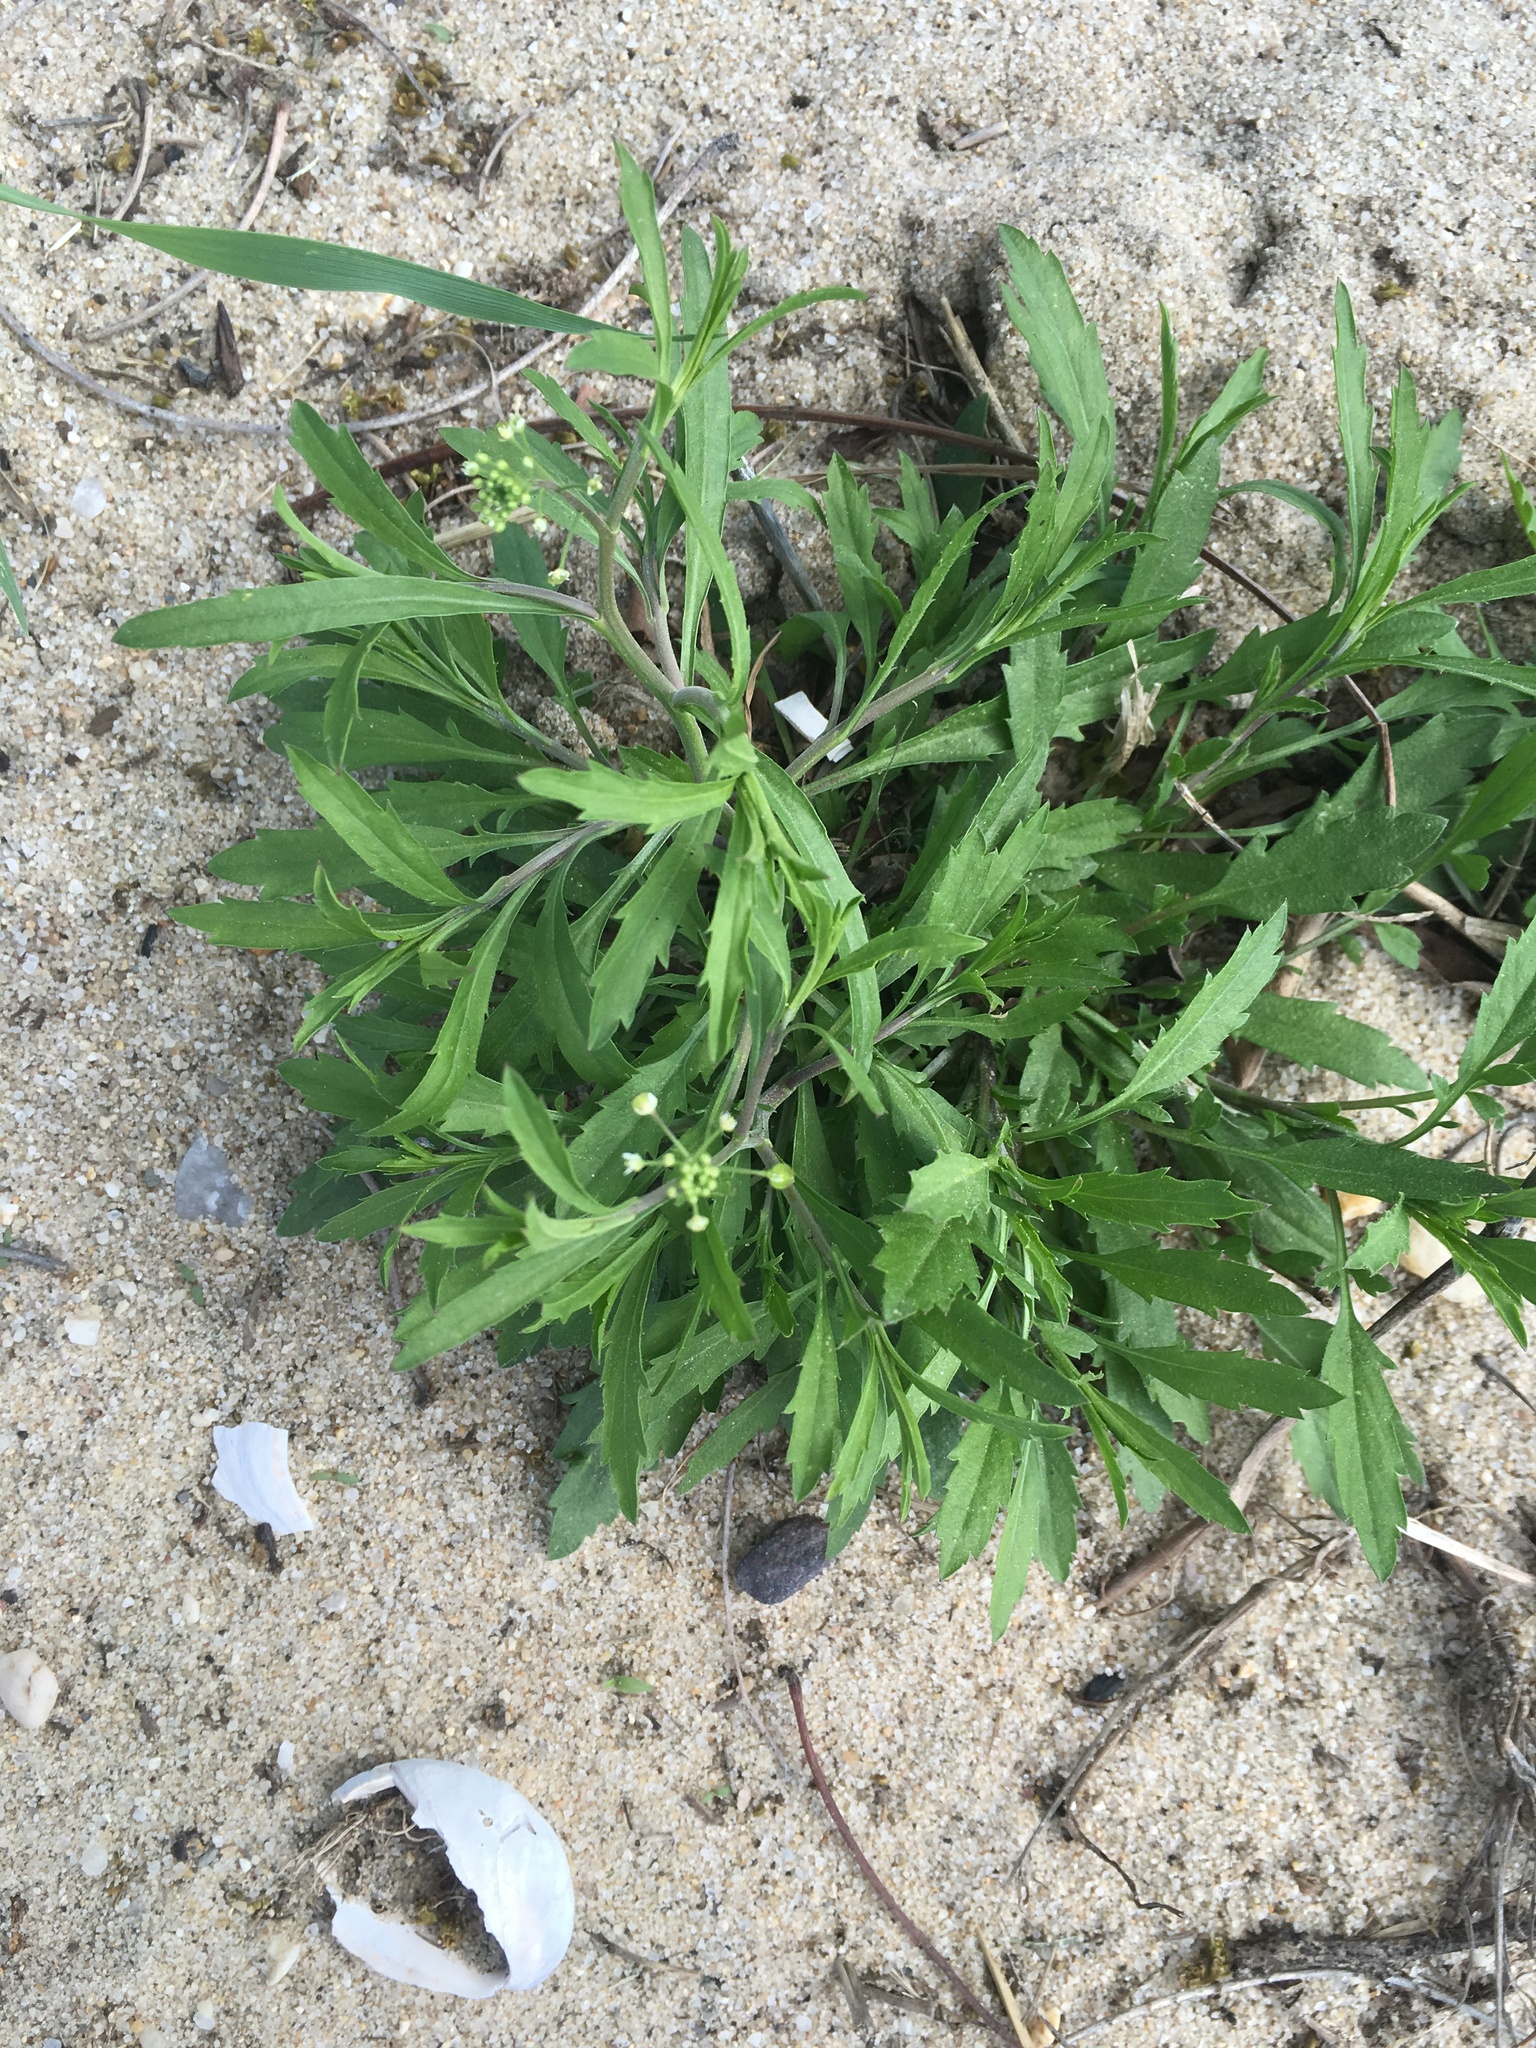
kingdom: Plantae
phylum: Tracheophyta
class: Magnoliopsida
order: Brassicales
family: Brassicaceae
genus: Lepidium
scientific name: Lepidium virginicum
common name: Least pepperwort
